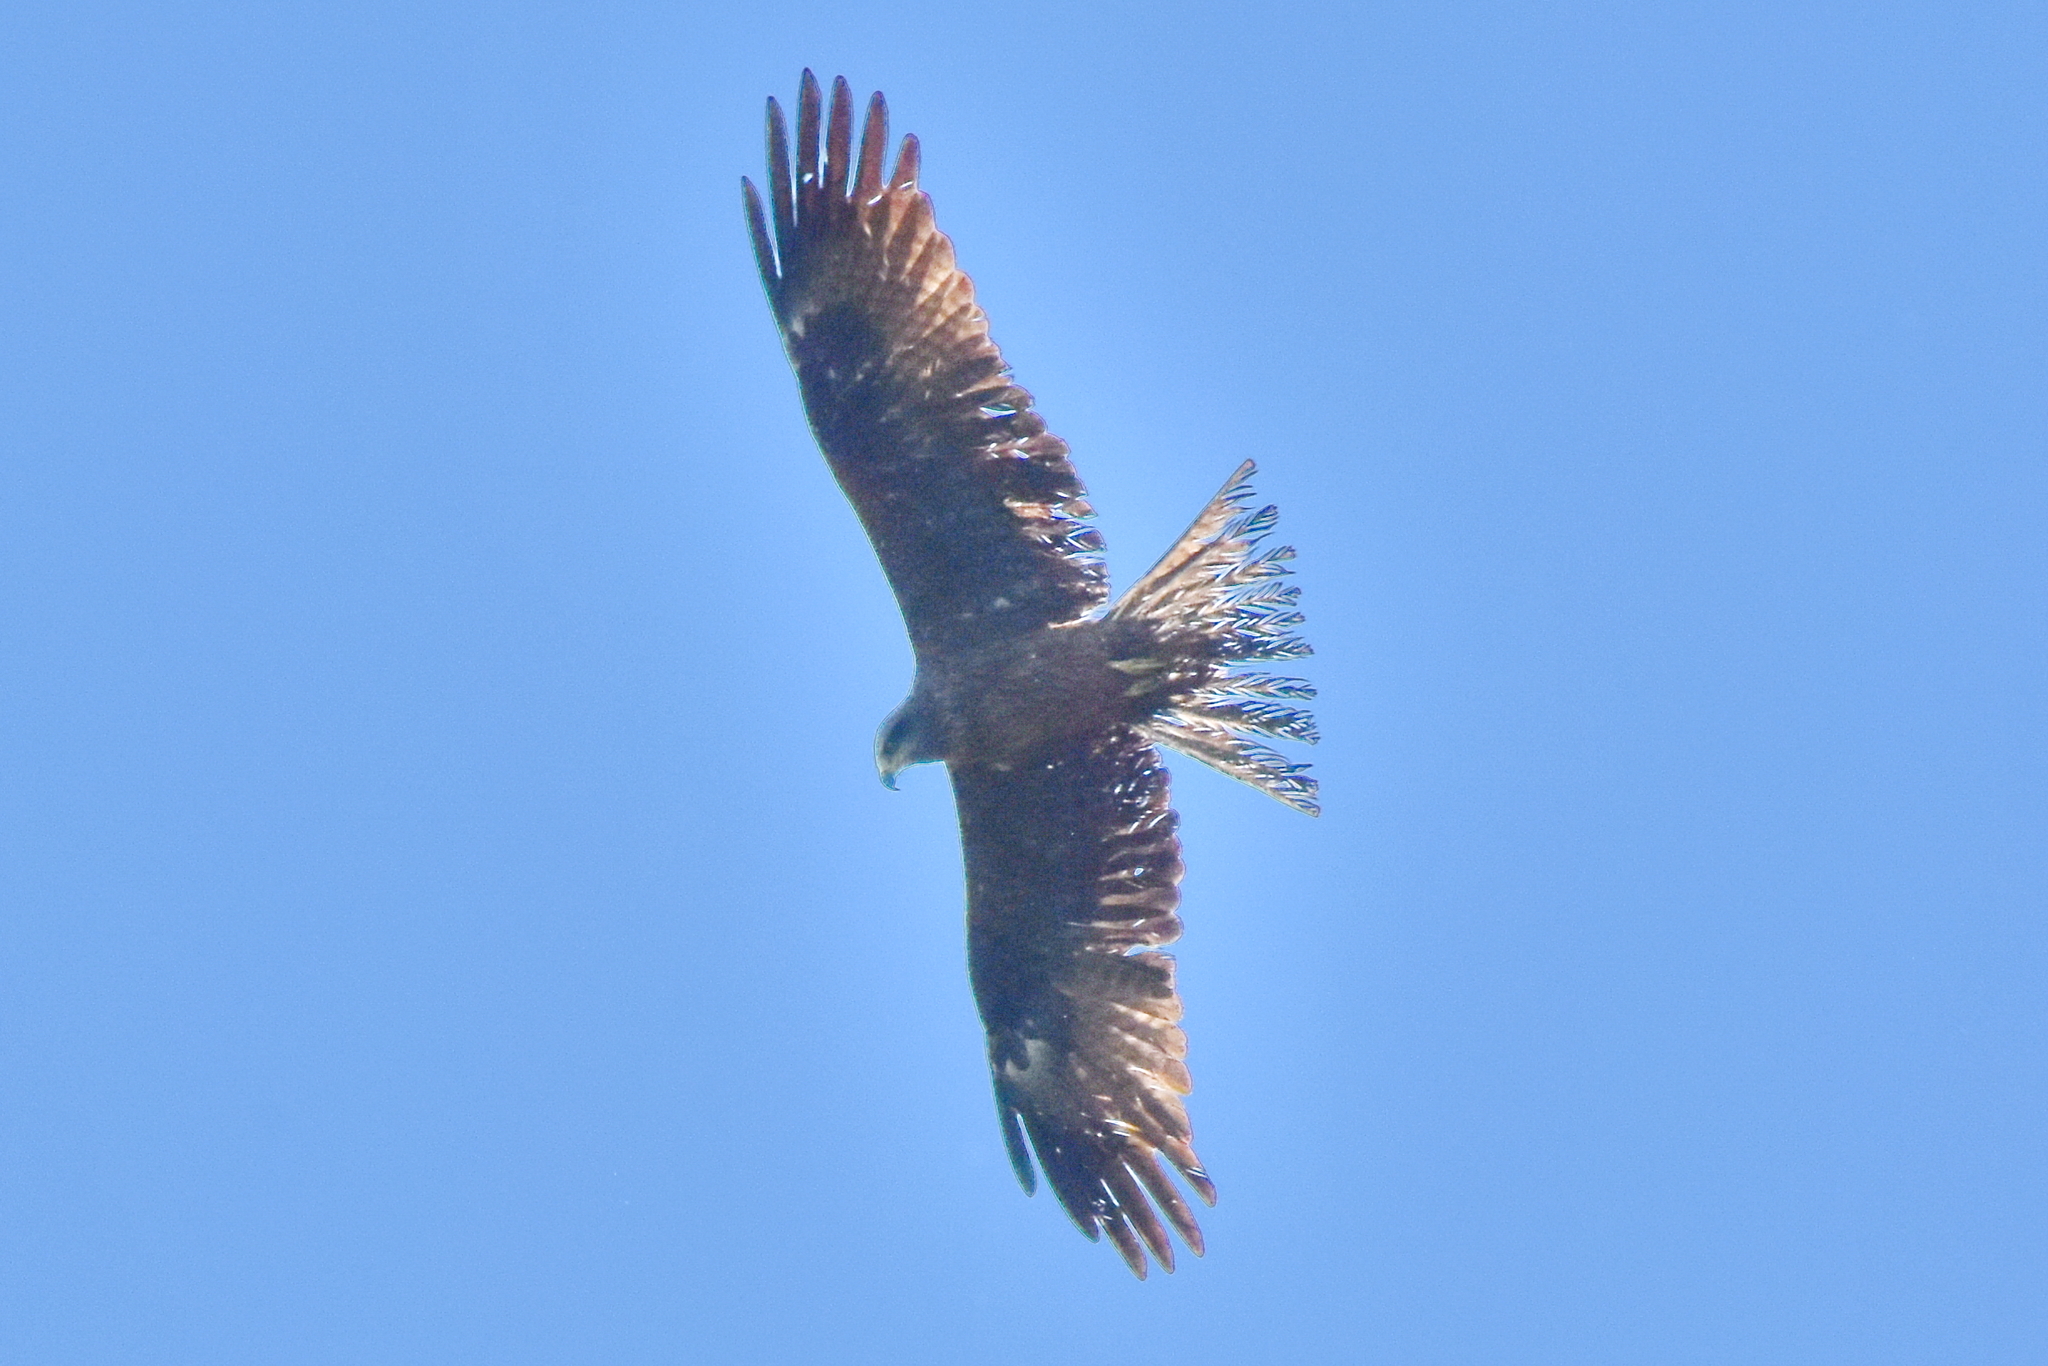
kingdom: Animalia
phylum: Chordata
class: Aves
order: Accipitriformes
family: Accipitridae
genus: Milvus
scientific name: Milvus migrans
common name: Black kite
